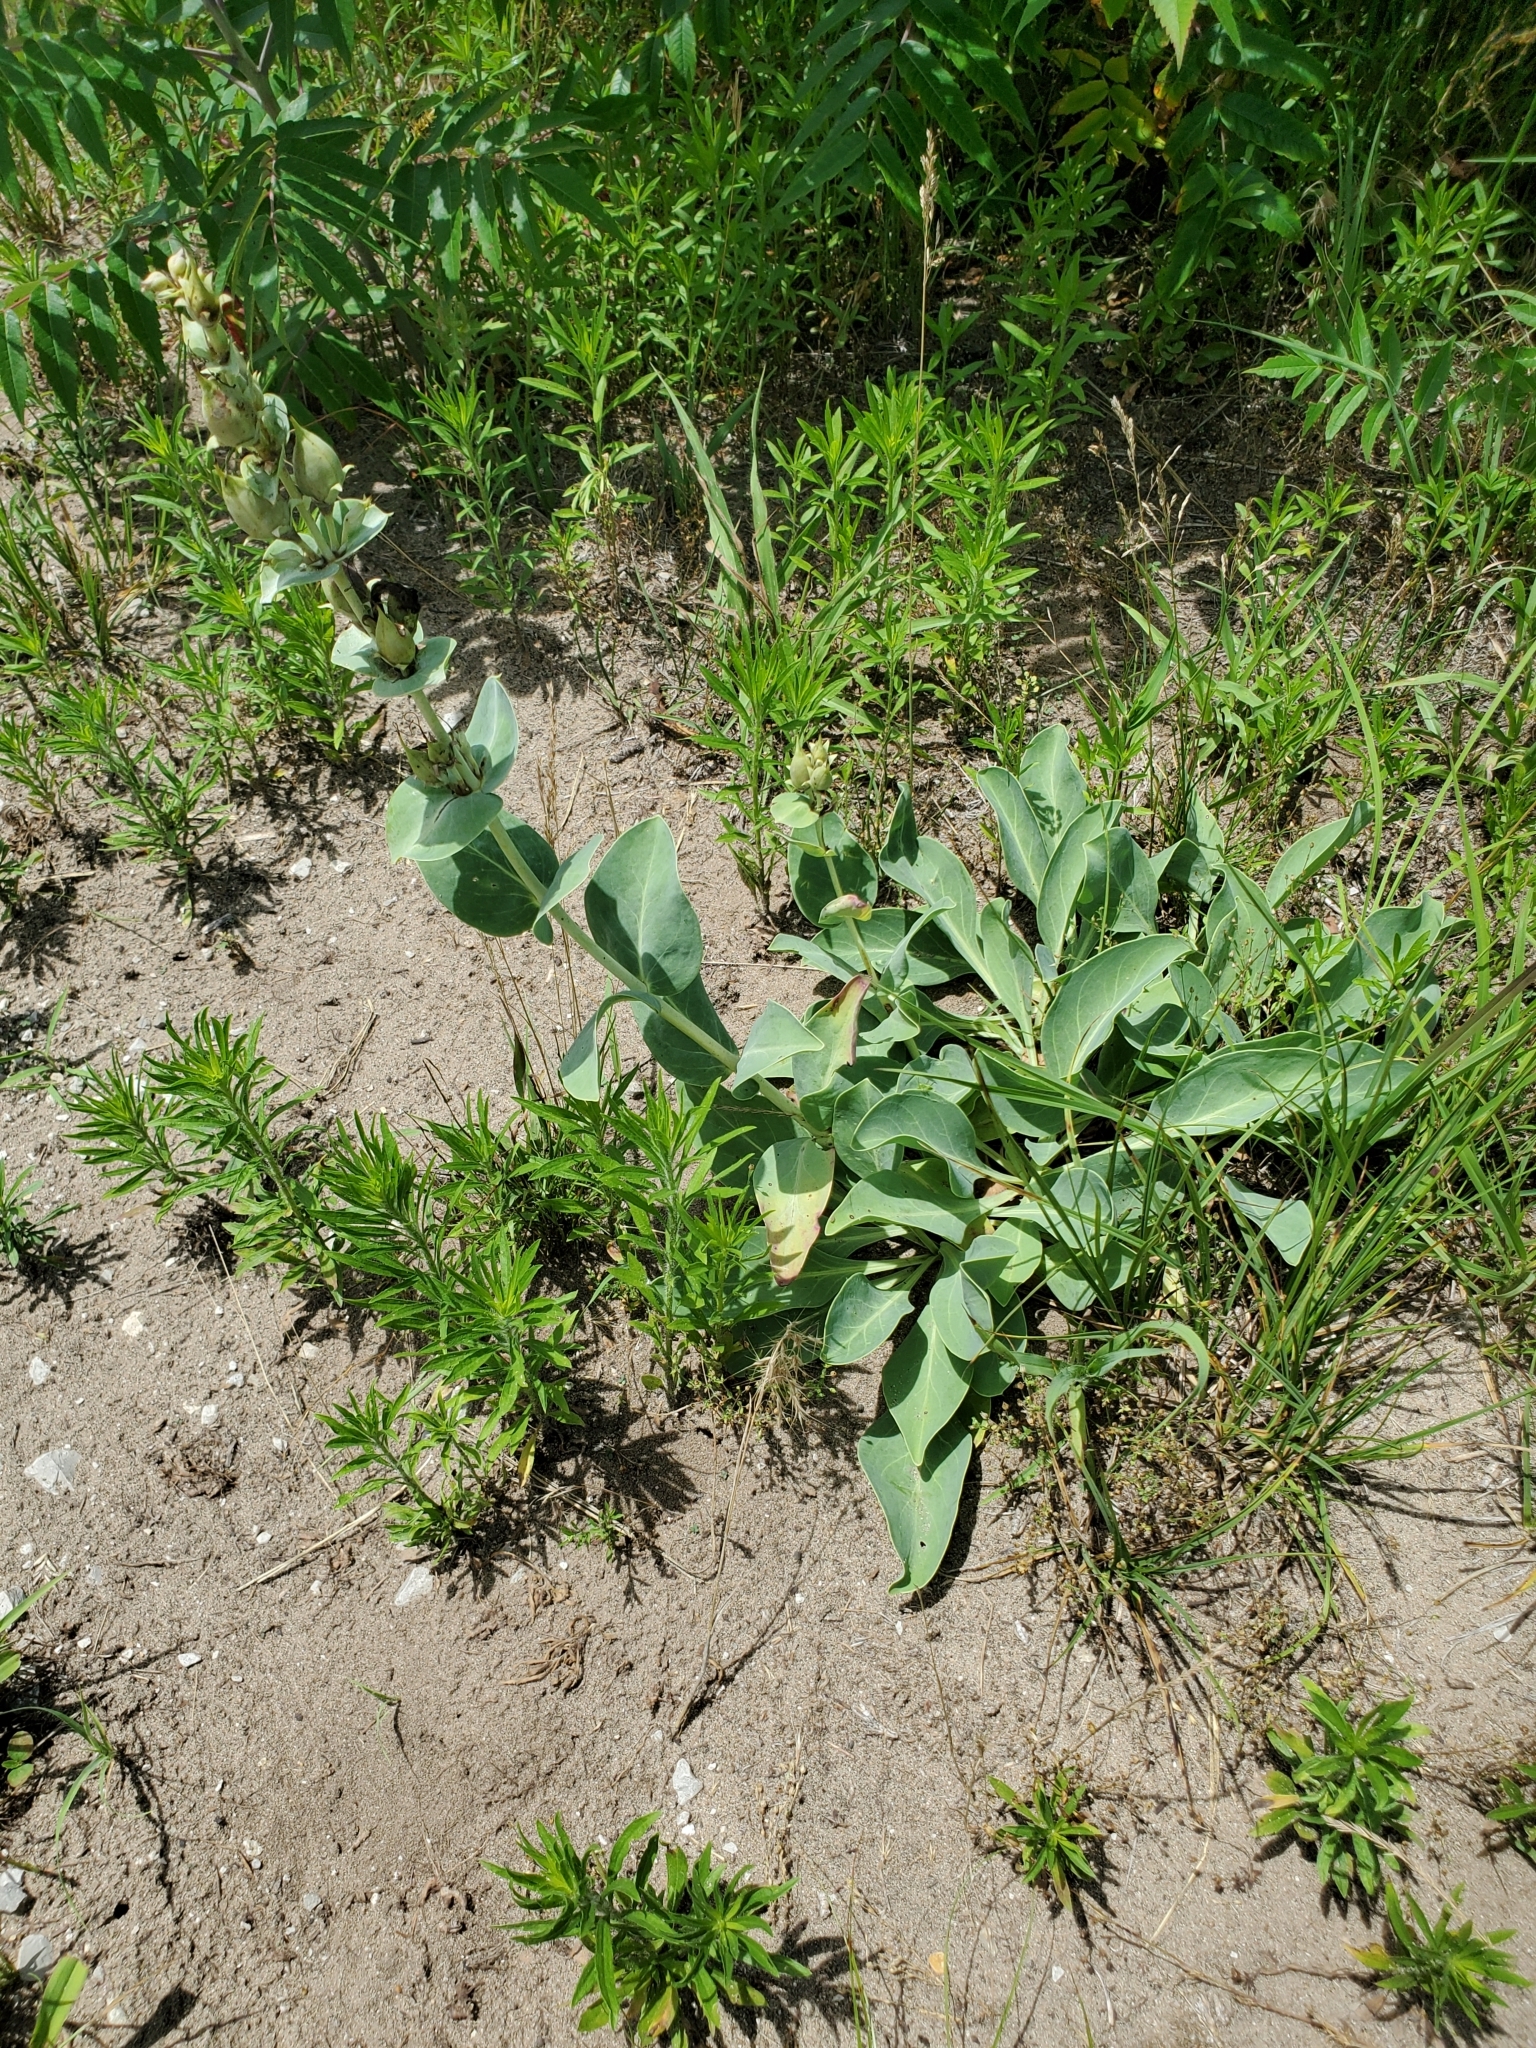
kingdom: Plantae
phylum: Tracheophyta
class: Magnoliopsida
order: Lamiales
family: Plantaginaceae
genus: Penstemon
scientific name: Penstemon
